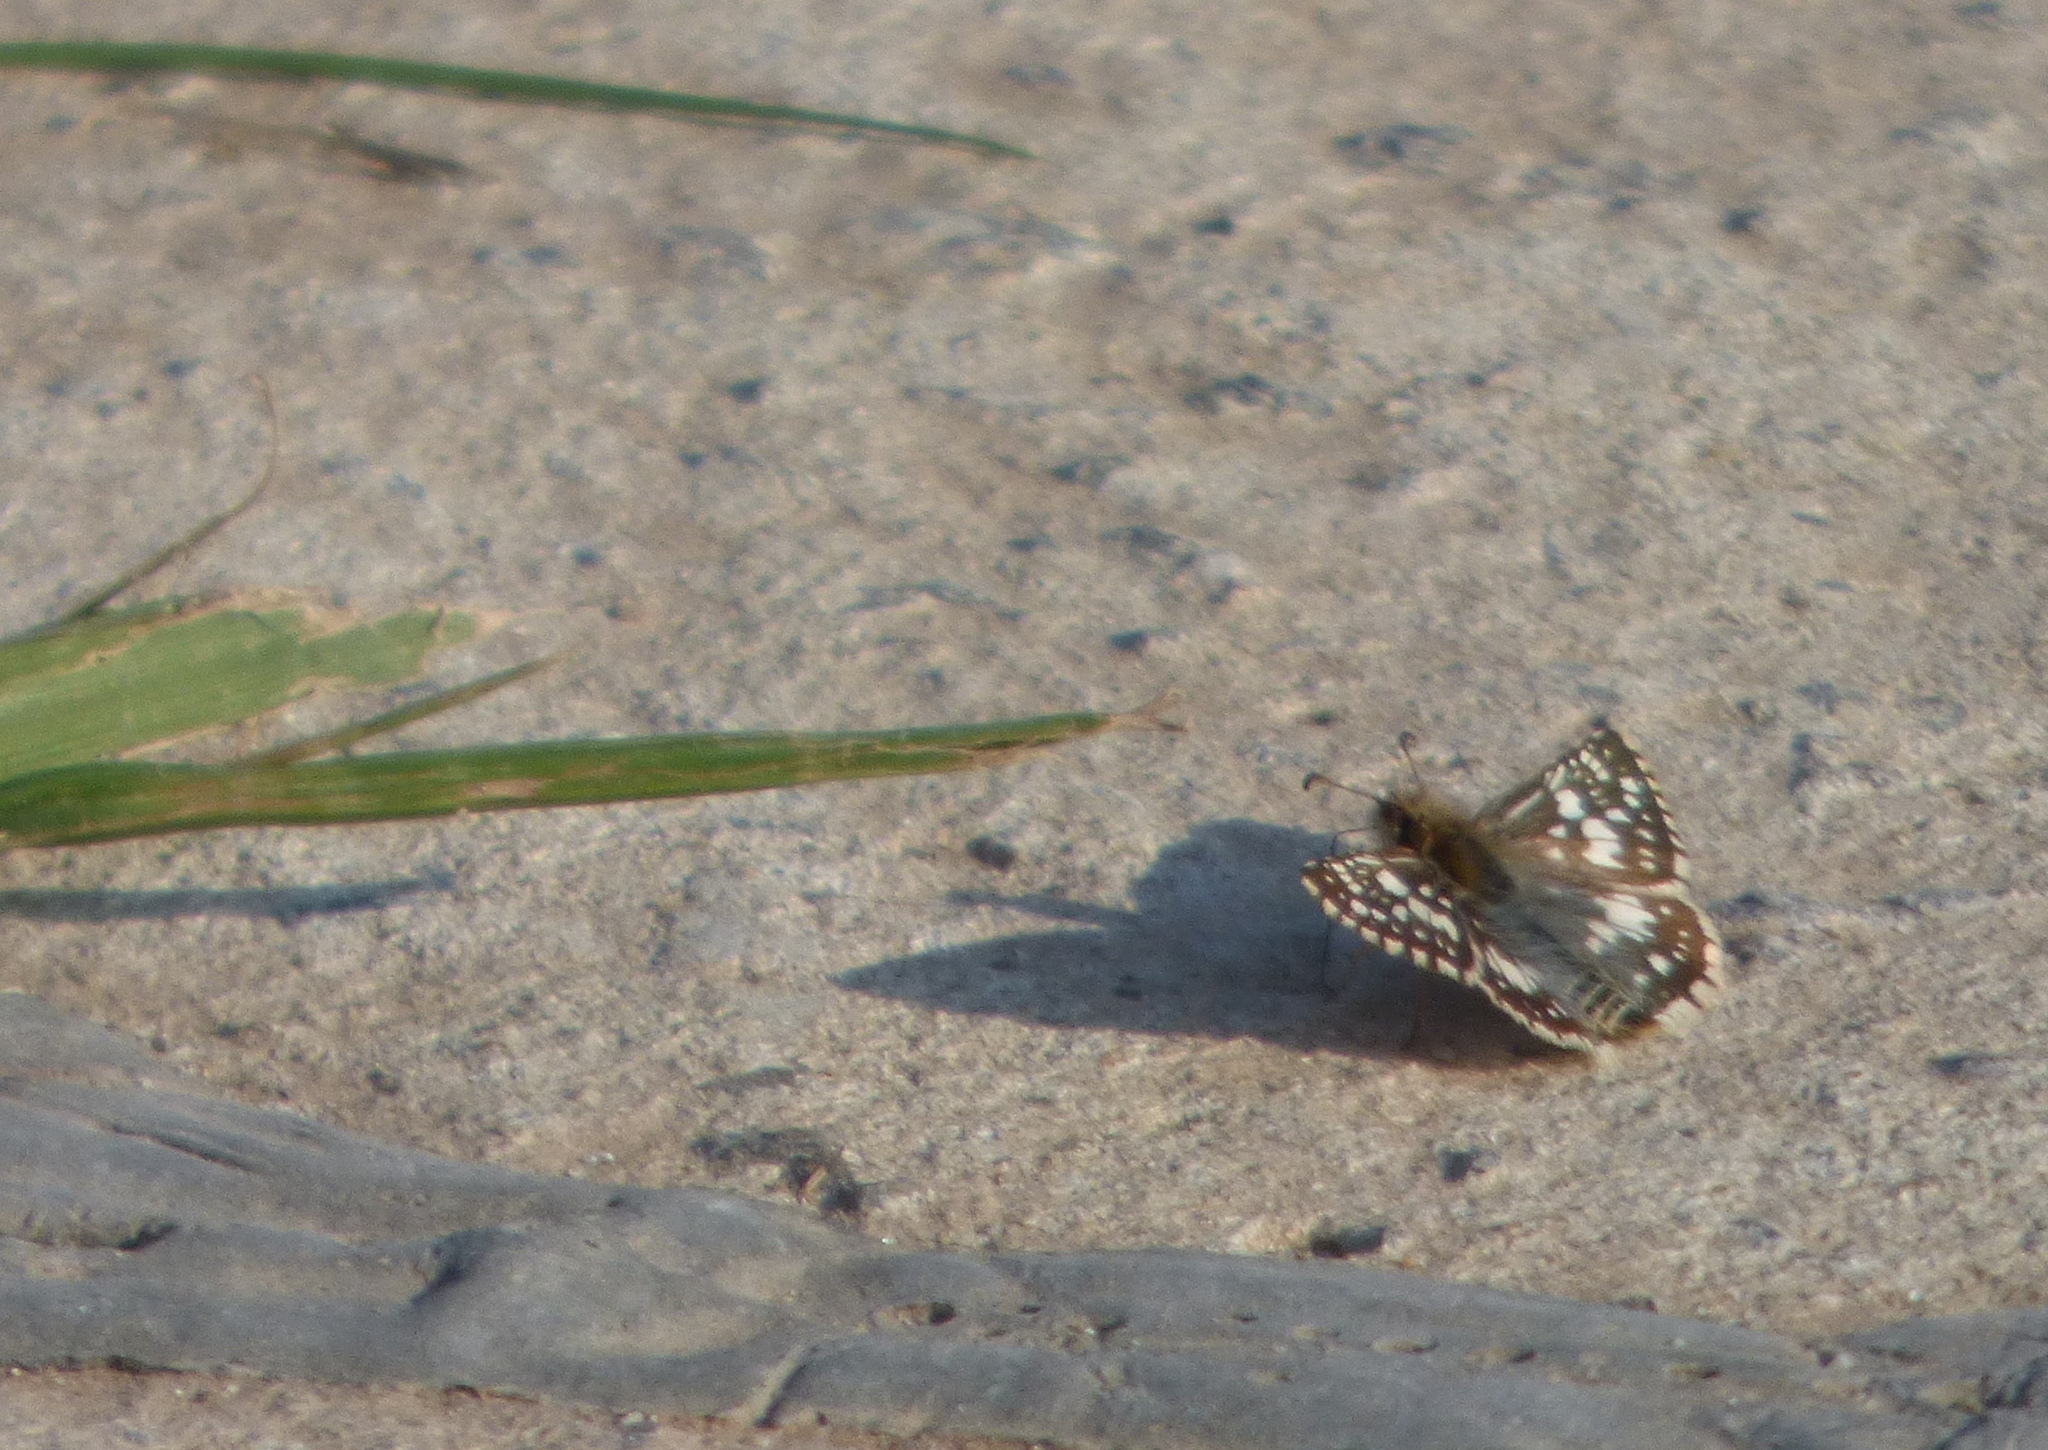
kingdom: Animalia
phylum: Arthropoda
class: Insecta
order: Lepidoptera
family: Hesperiidae
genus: Burnsius
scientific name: Burnsius orcynoides
